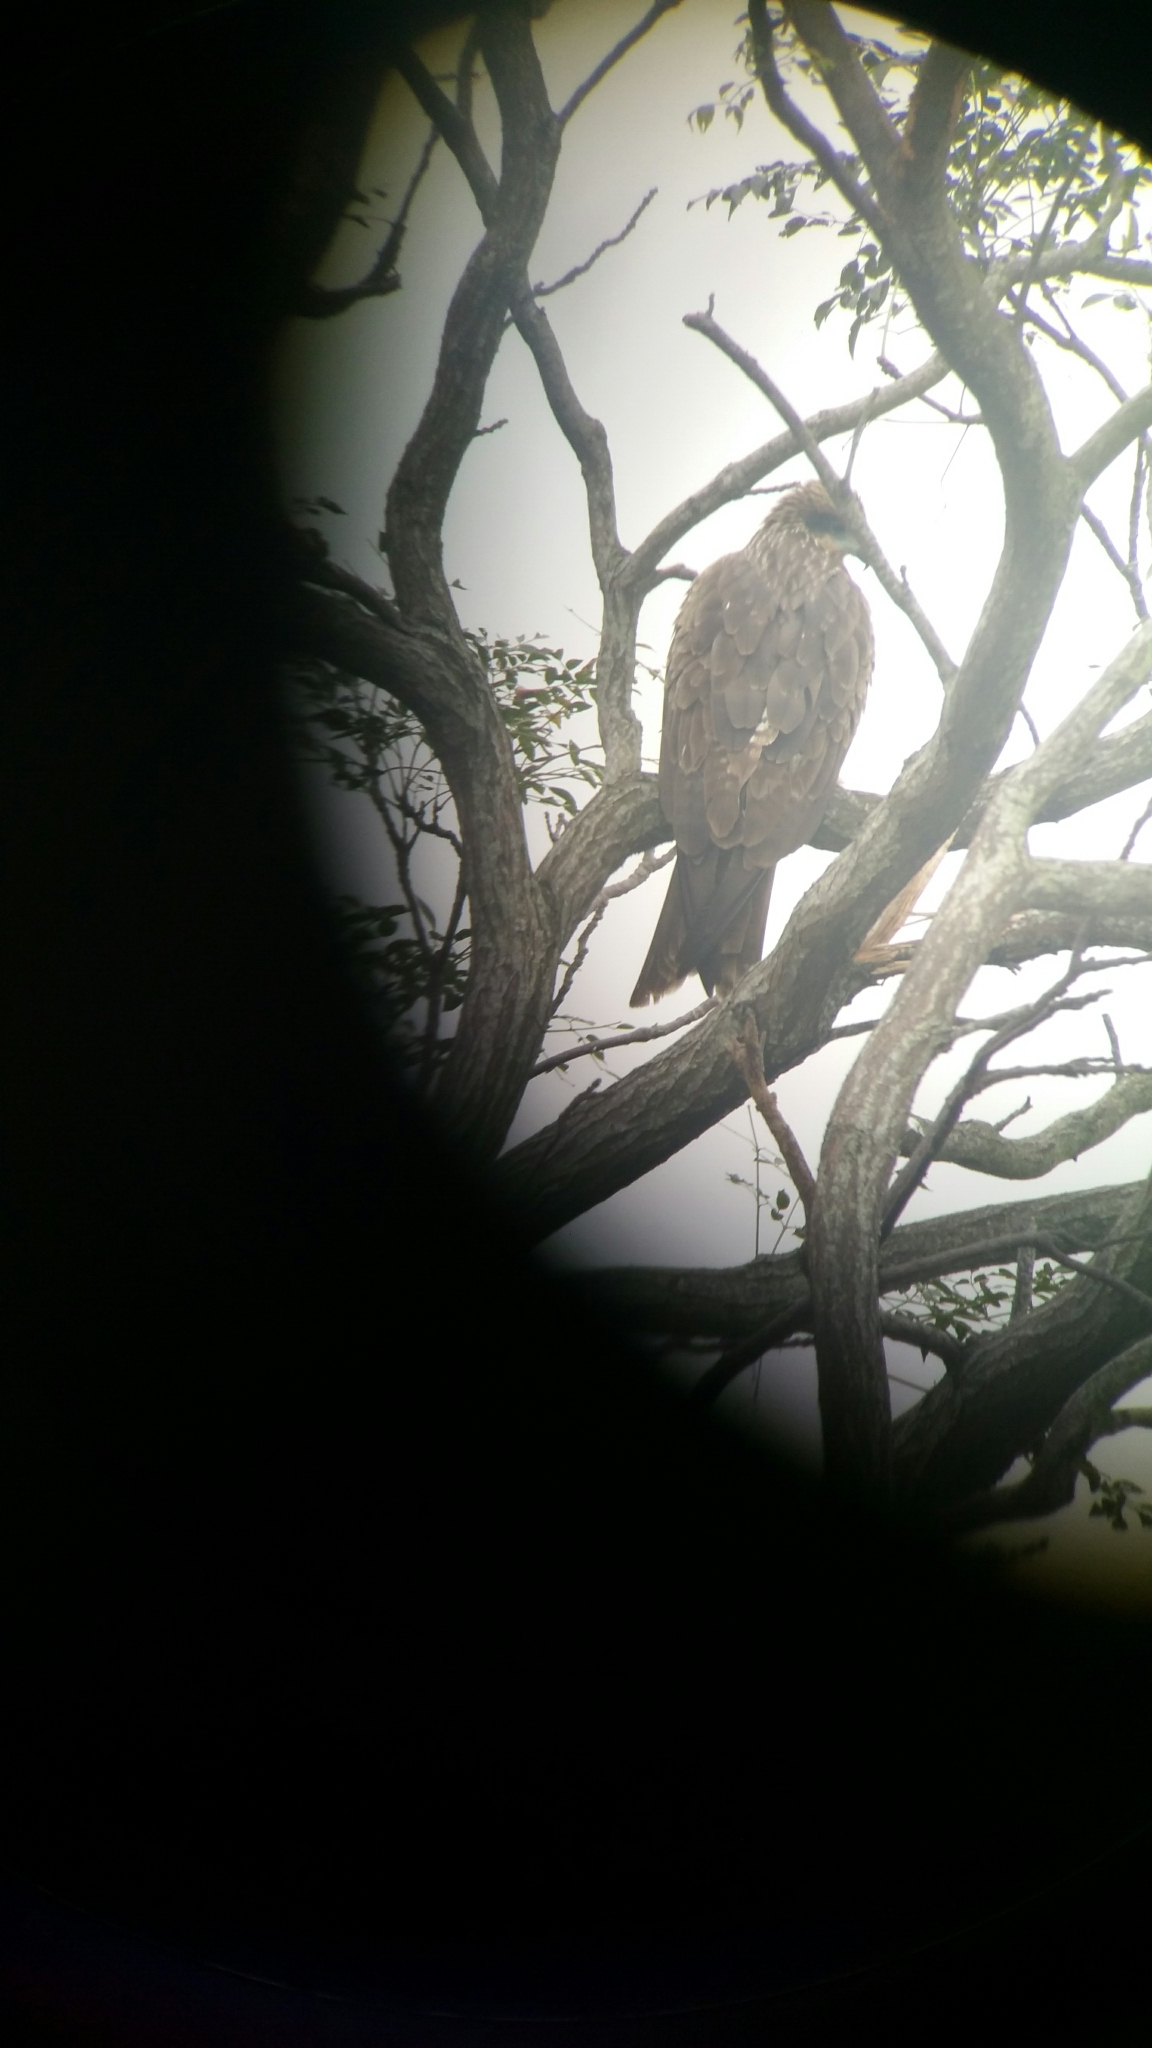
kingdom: Animalia
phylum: Chordata
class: Aves
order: Accipitriformes
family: Accipitridae
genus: Milvus
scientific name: Milvus migrans
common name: Black kite
